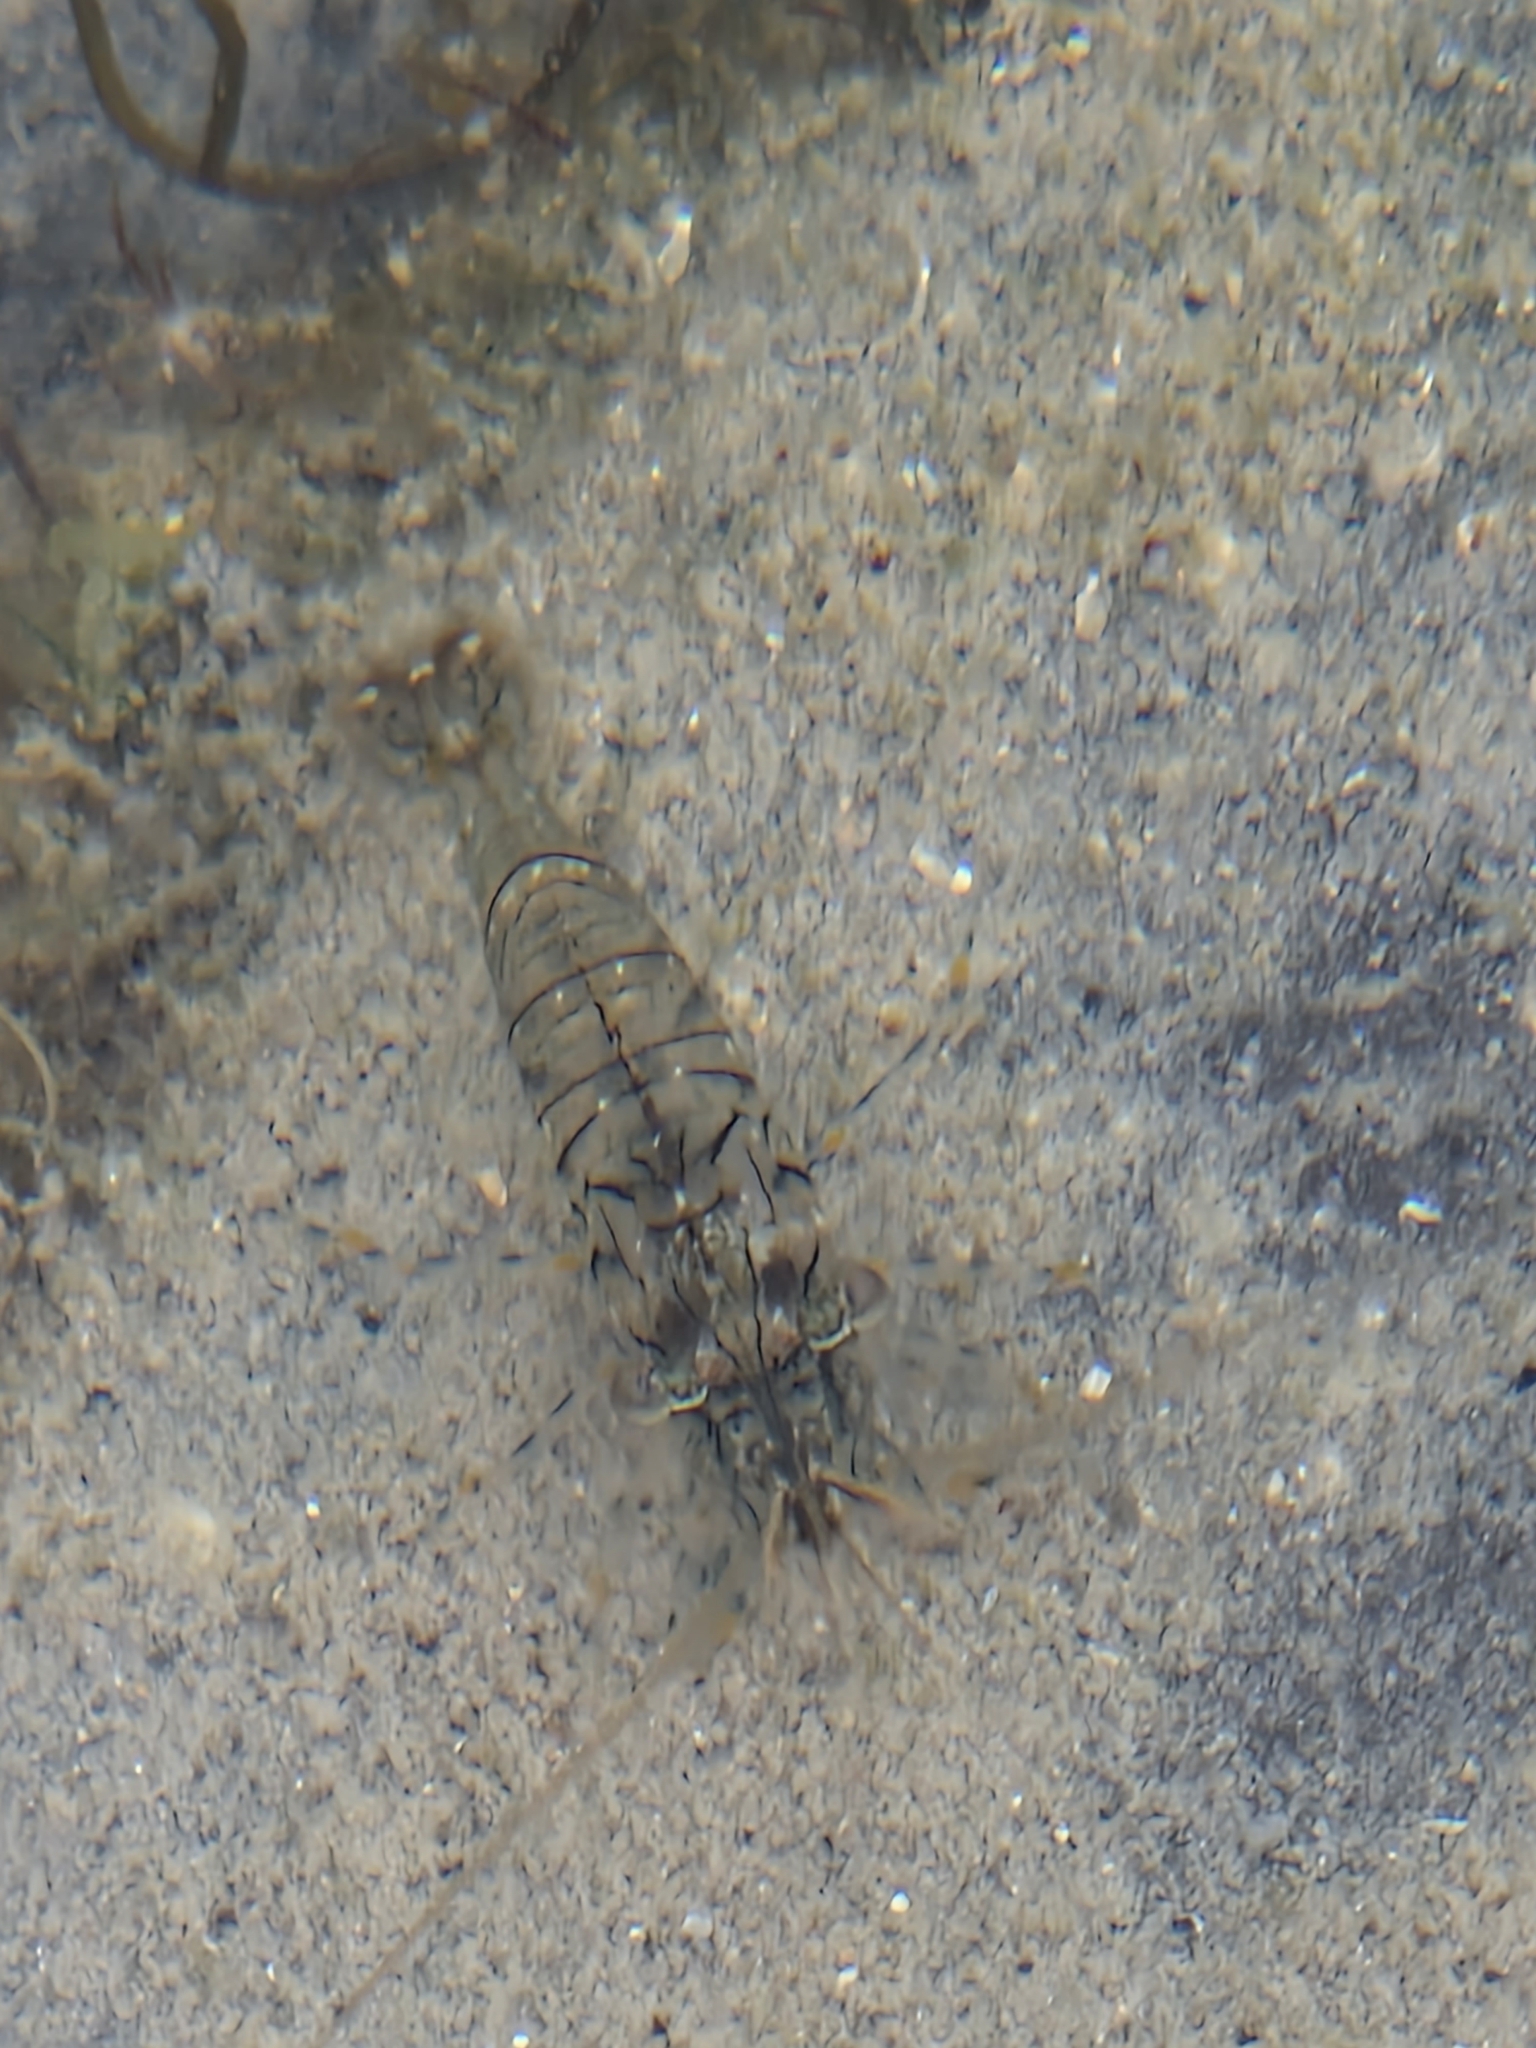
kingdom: Animalia
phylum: Arthropoda
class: Malacostraca
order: Decapoda
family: Palaemonidae
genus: Palaemon
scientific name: Palaemon elegans
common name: Grass prawm
